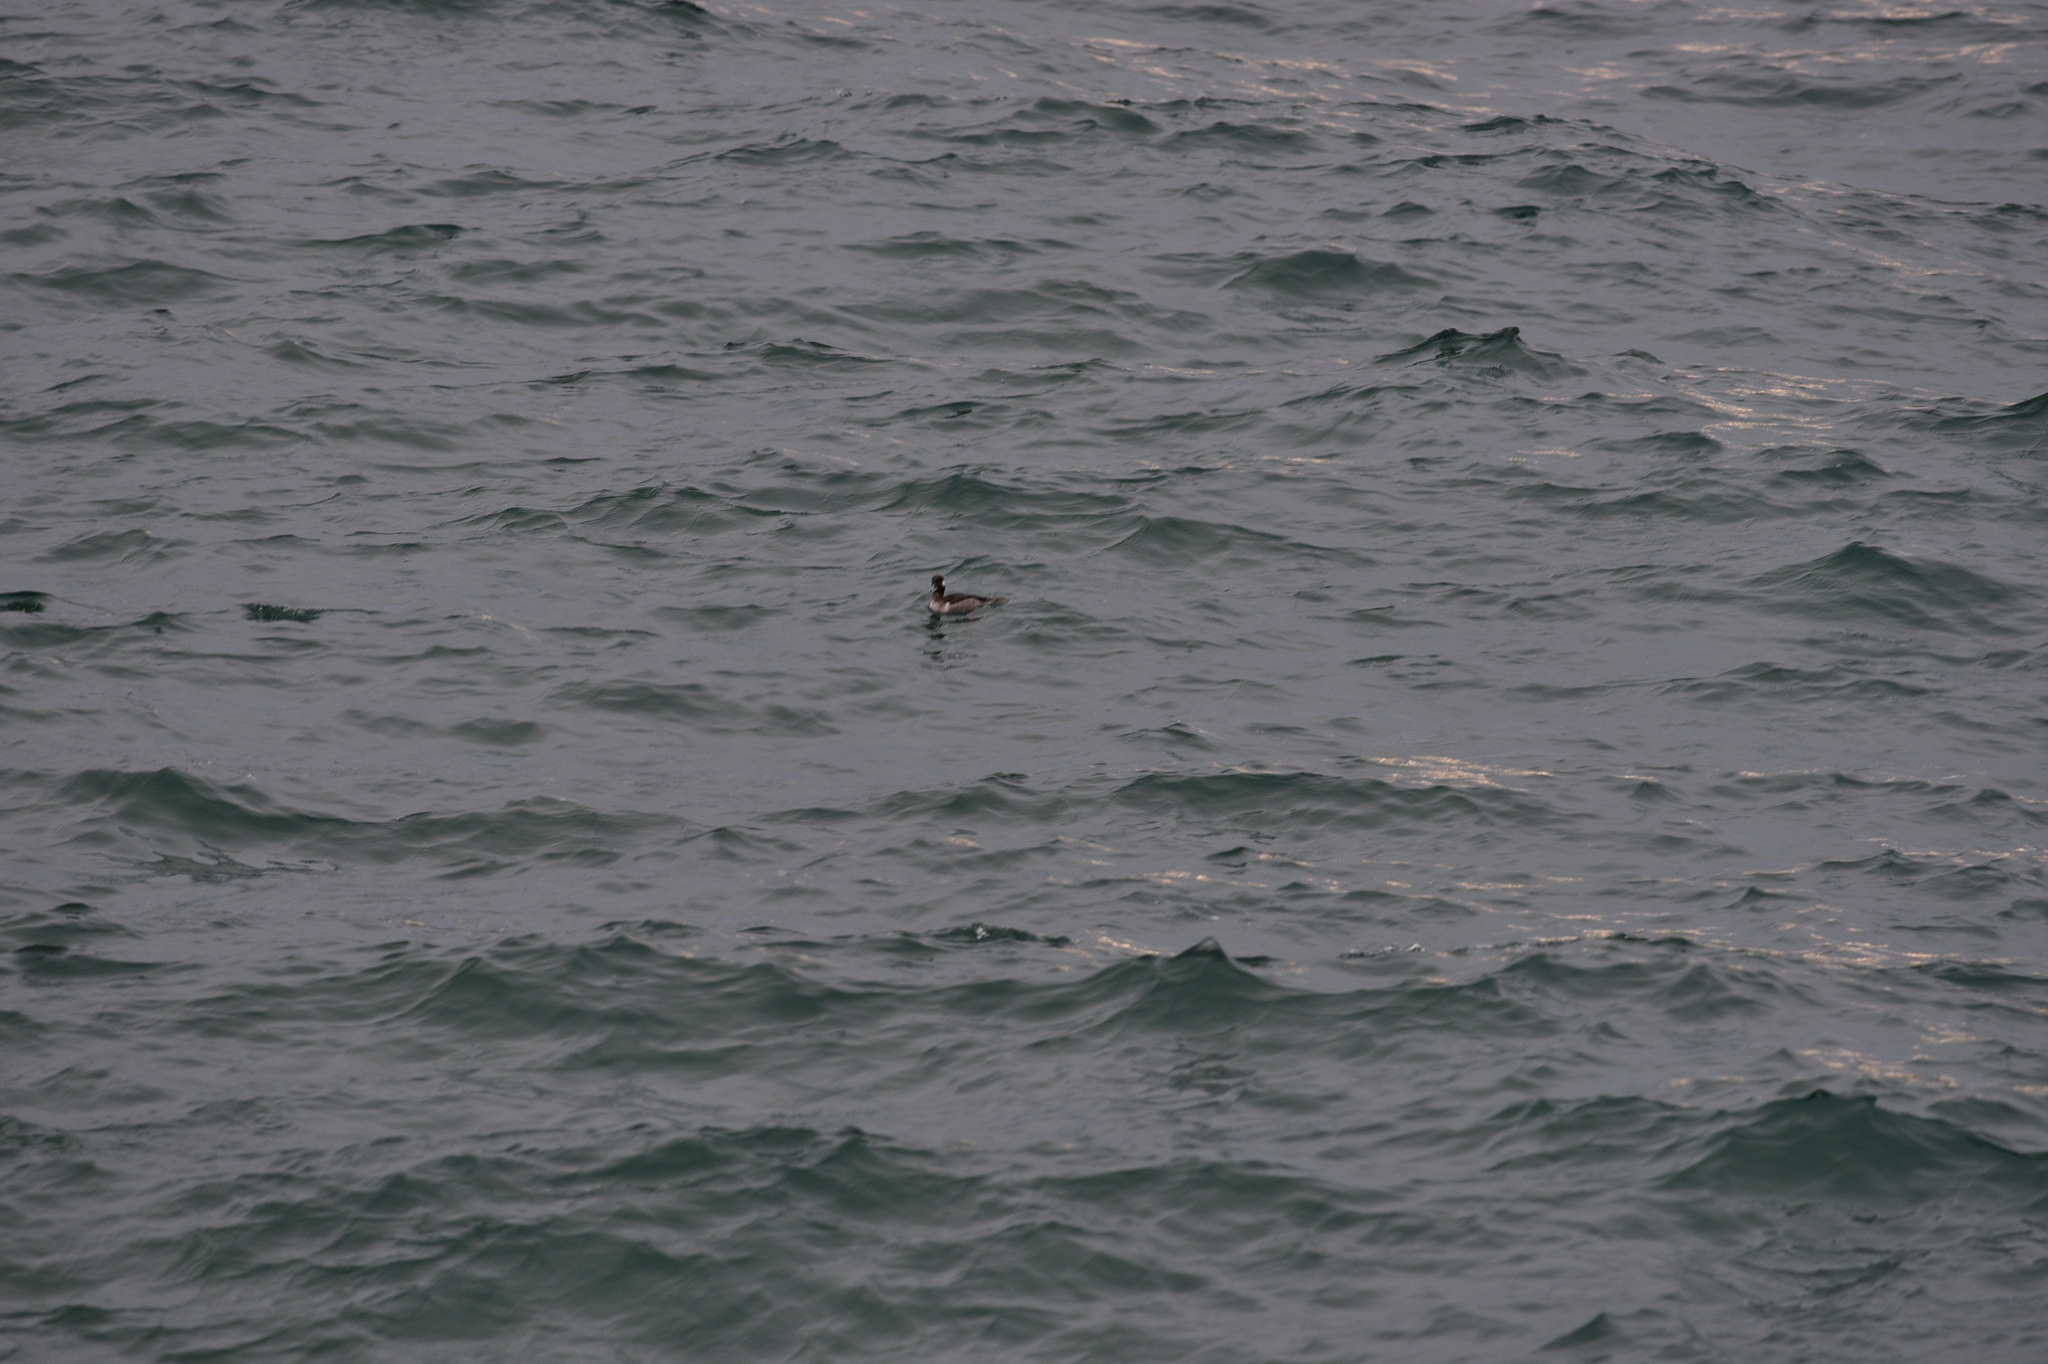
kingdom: Animalia
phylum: Chordata
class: Aves
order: Anseriformes
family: Anatidae
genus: Bucephala
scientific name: Bucephala albeola
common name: Bufflehead
